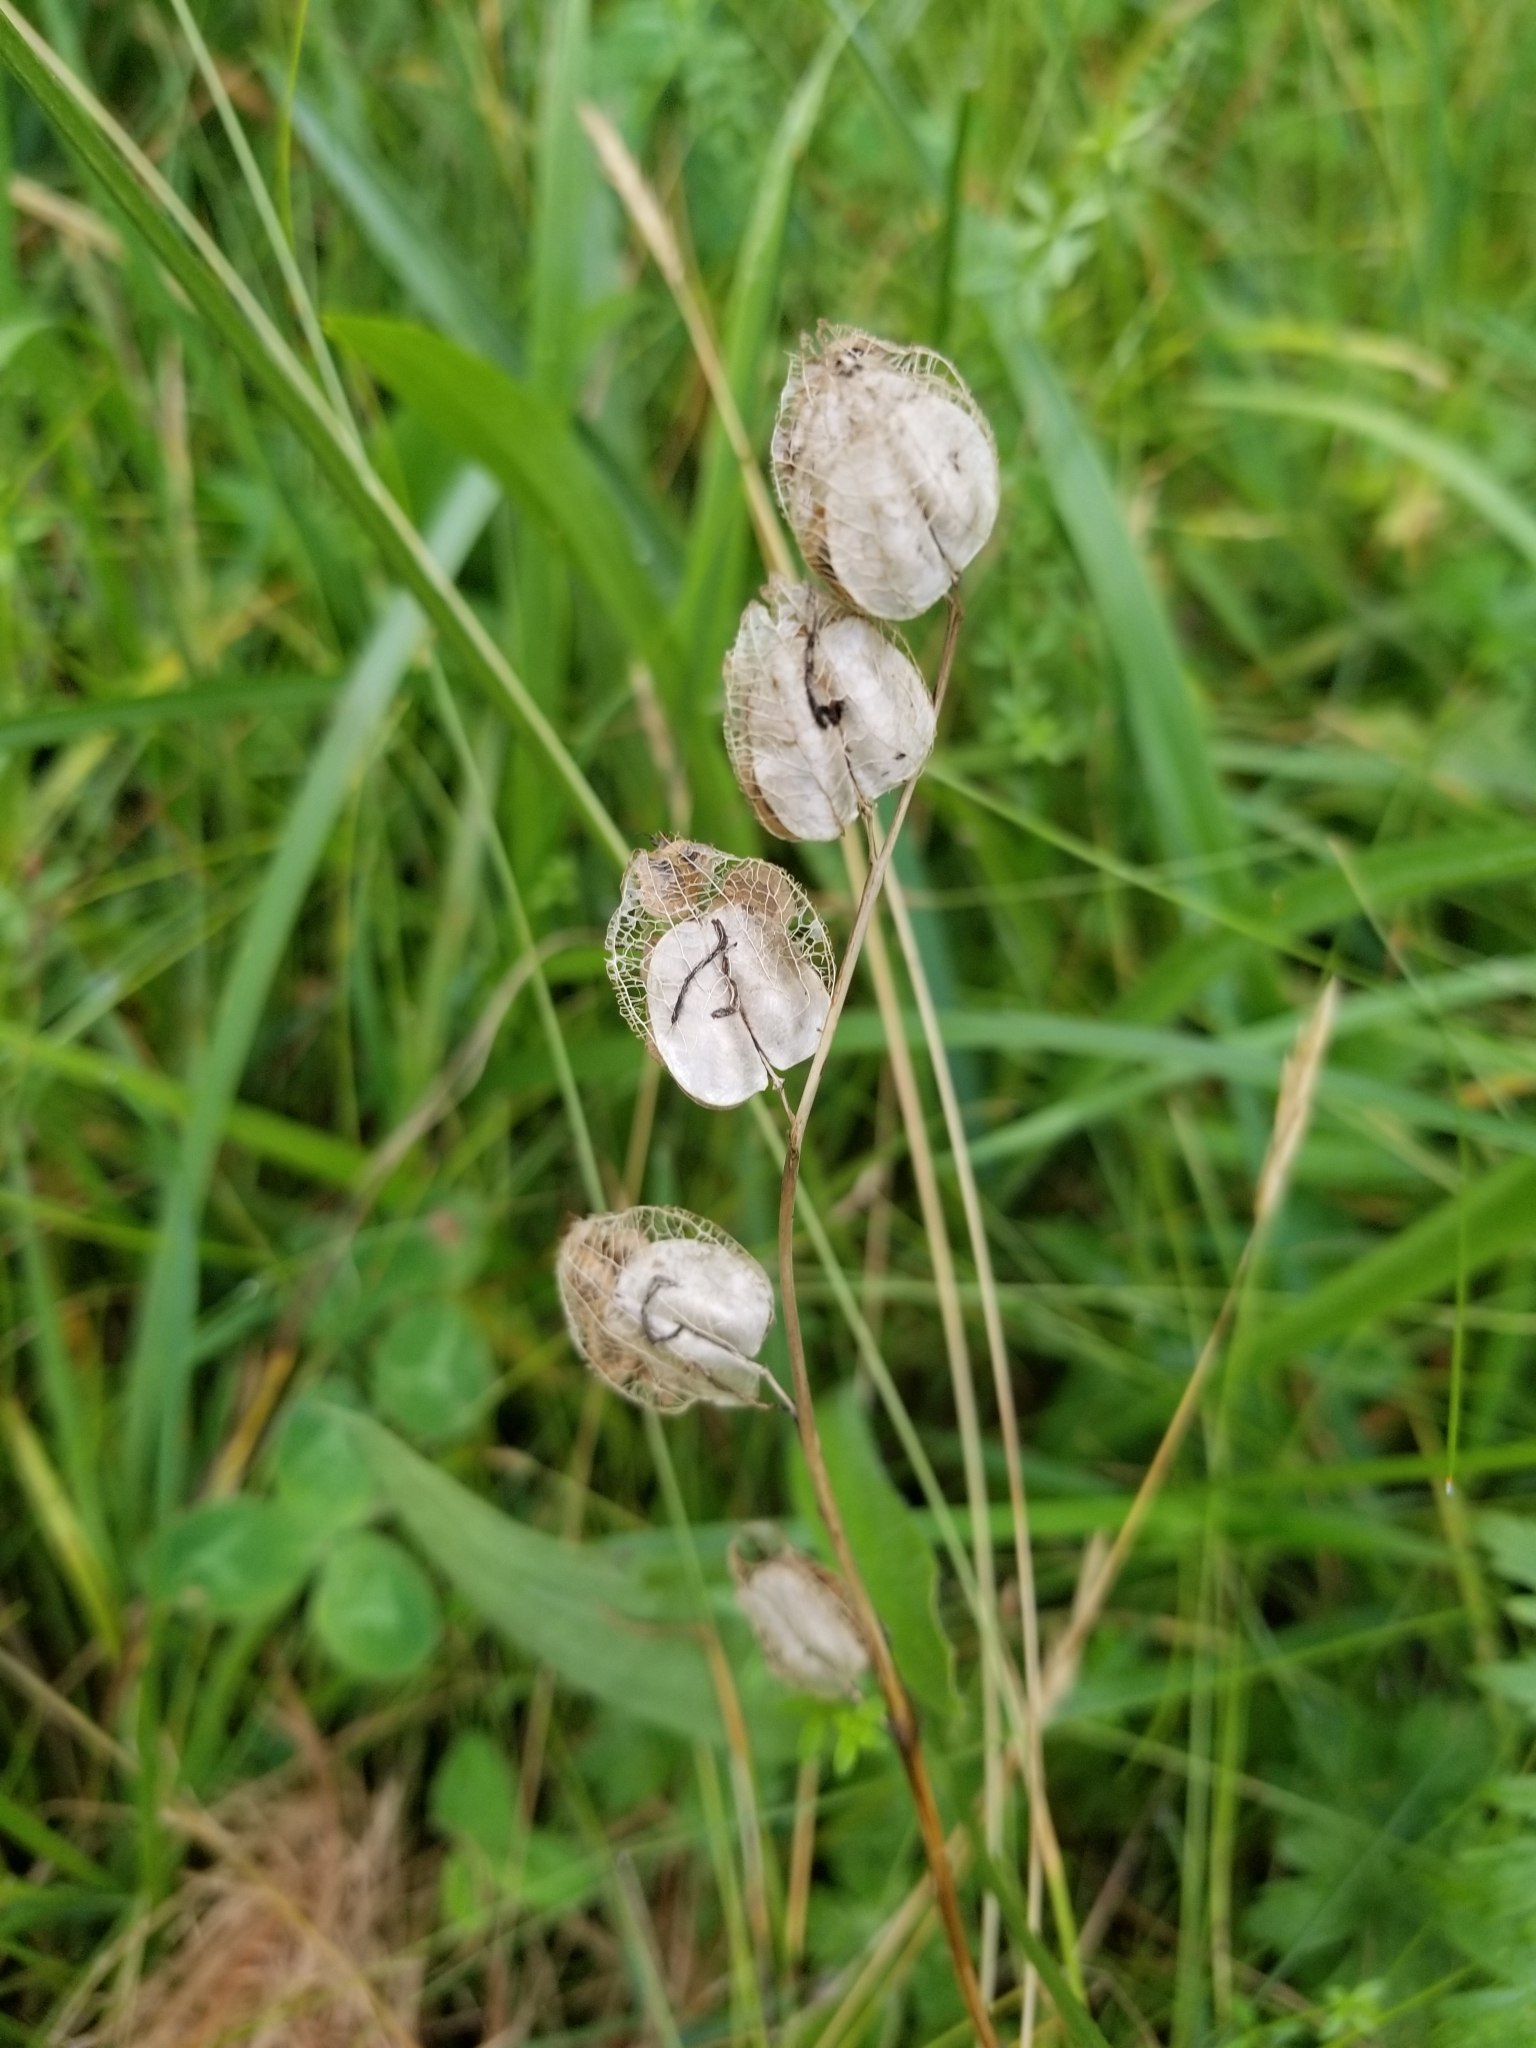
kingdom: Plantae
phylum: Tracheophyta
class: Magnoliopsida
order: Lamiales
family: Orobanchaceae
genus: Rhinanthus
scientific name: Rhinanthus minor
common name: Yellow-rattle
